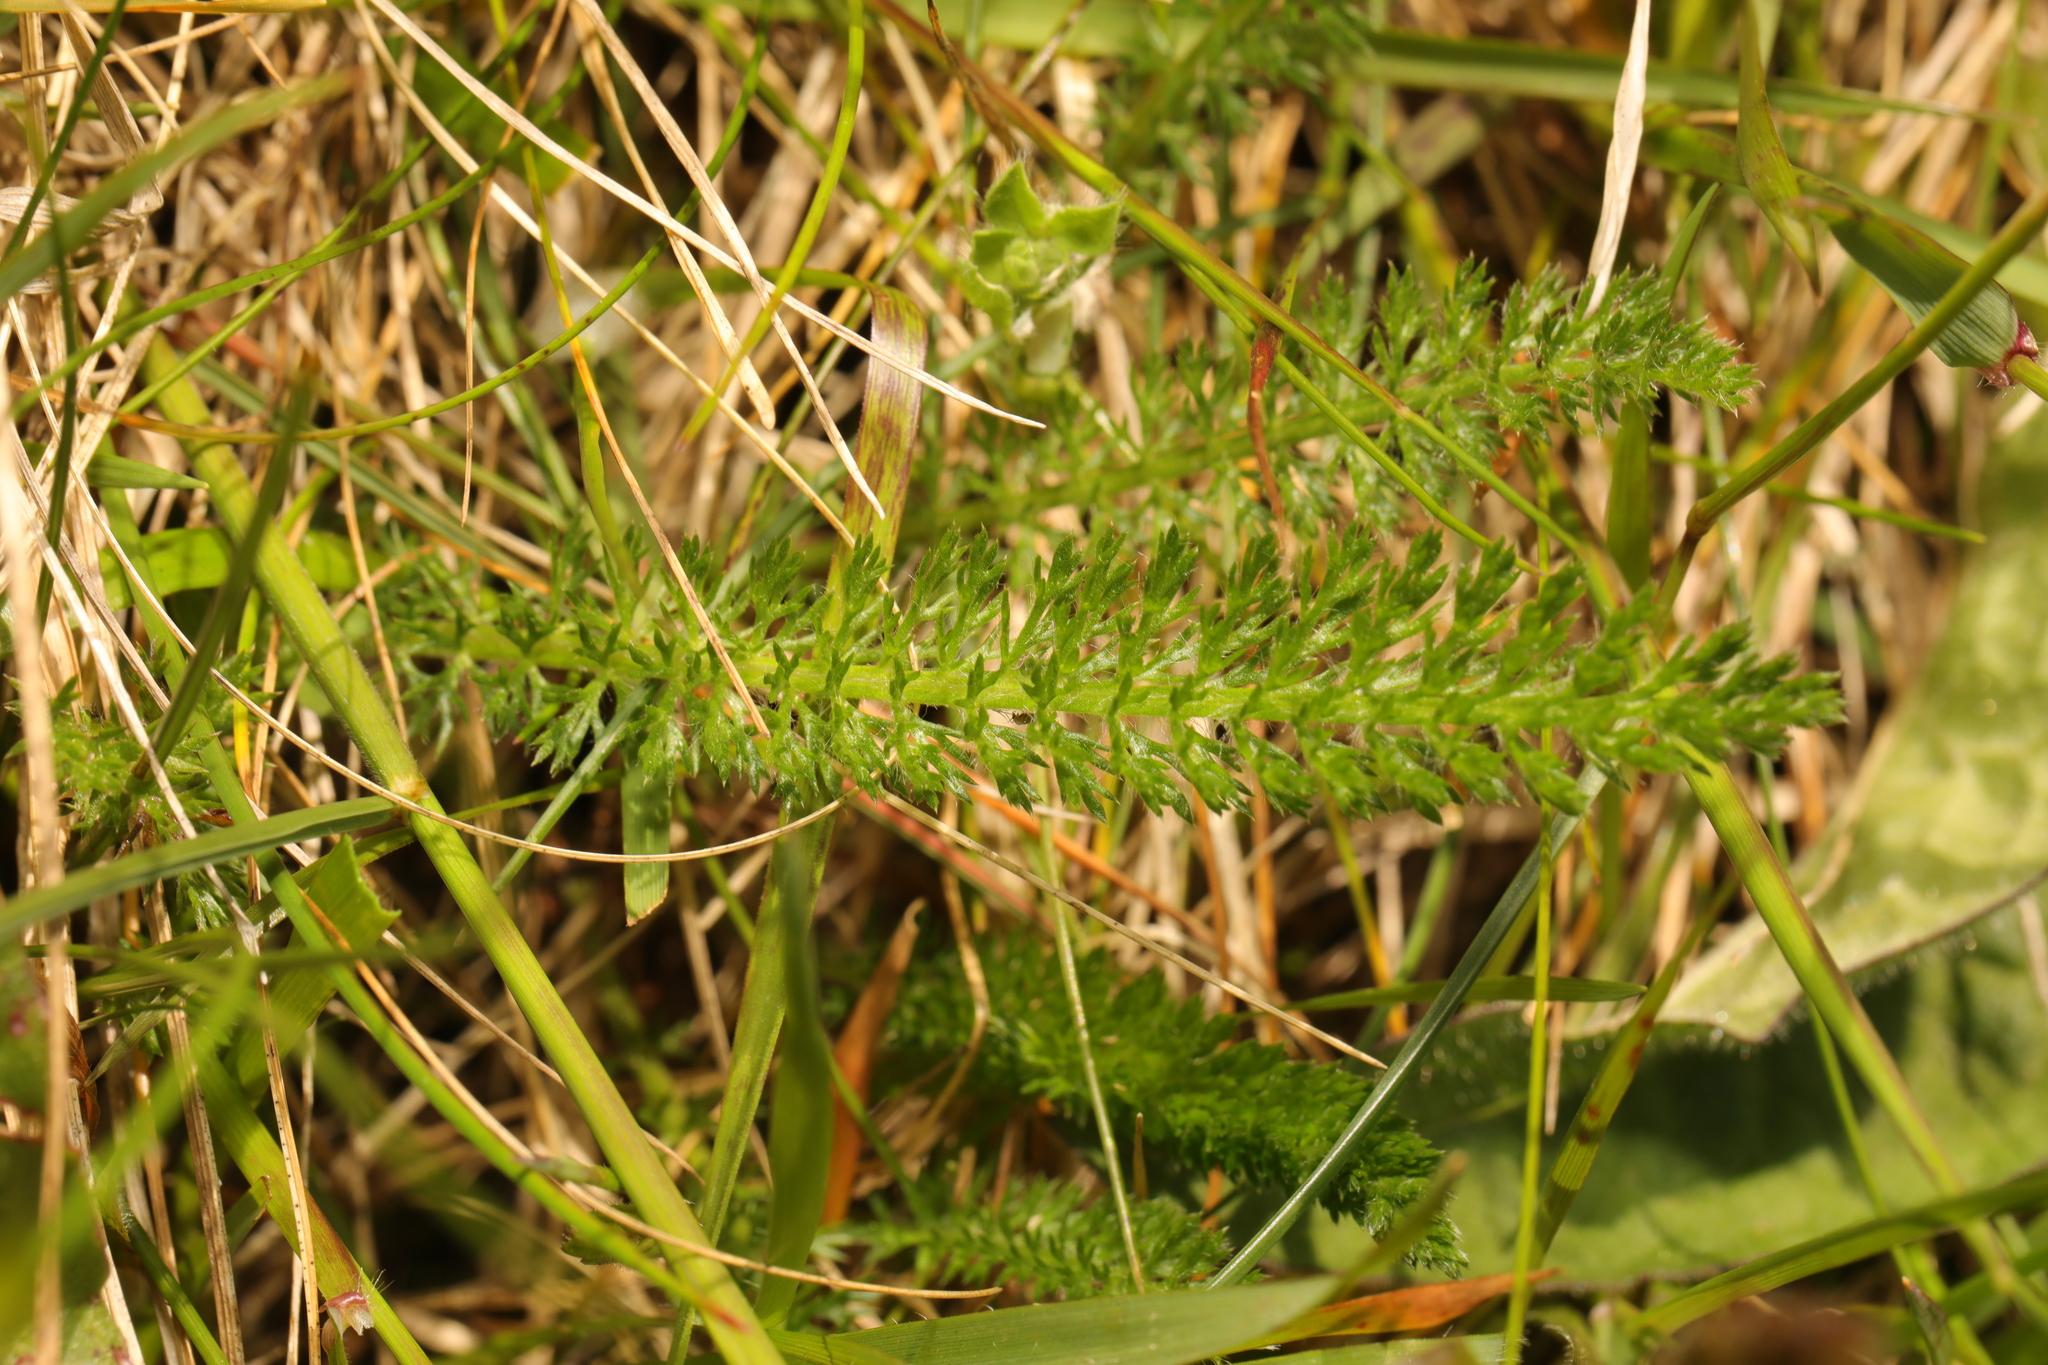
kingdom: Plantae
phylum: Tracheophyta
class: Magnoliopsida
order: Asterales
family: Asteraceae
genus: Achillea
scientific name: Achillea millefolium
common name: Yarrow
